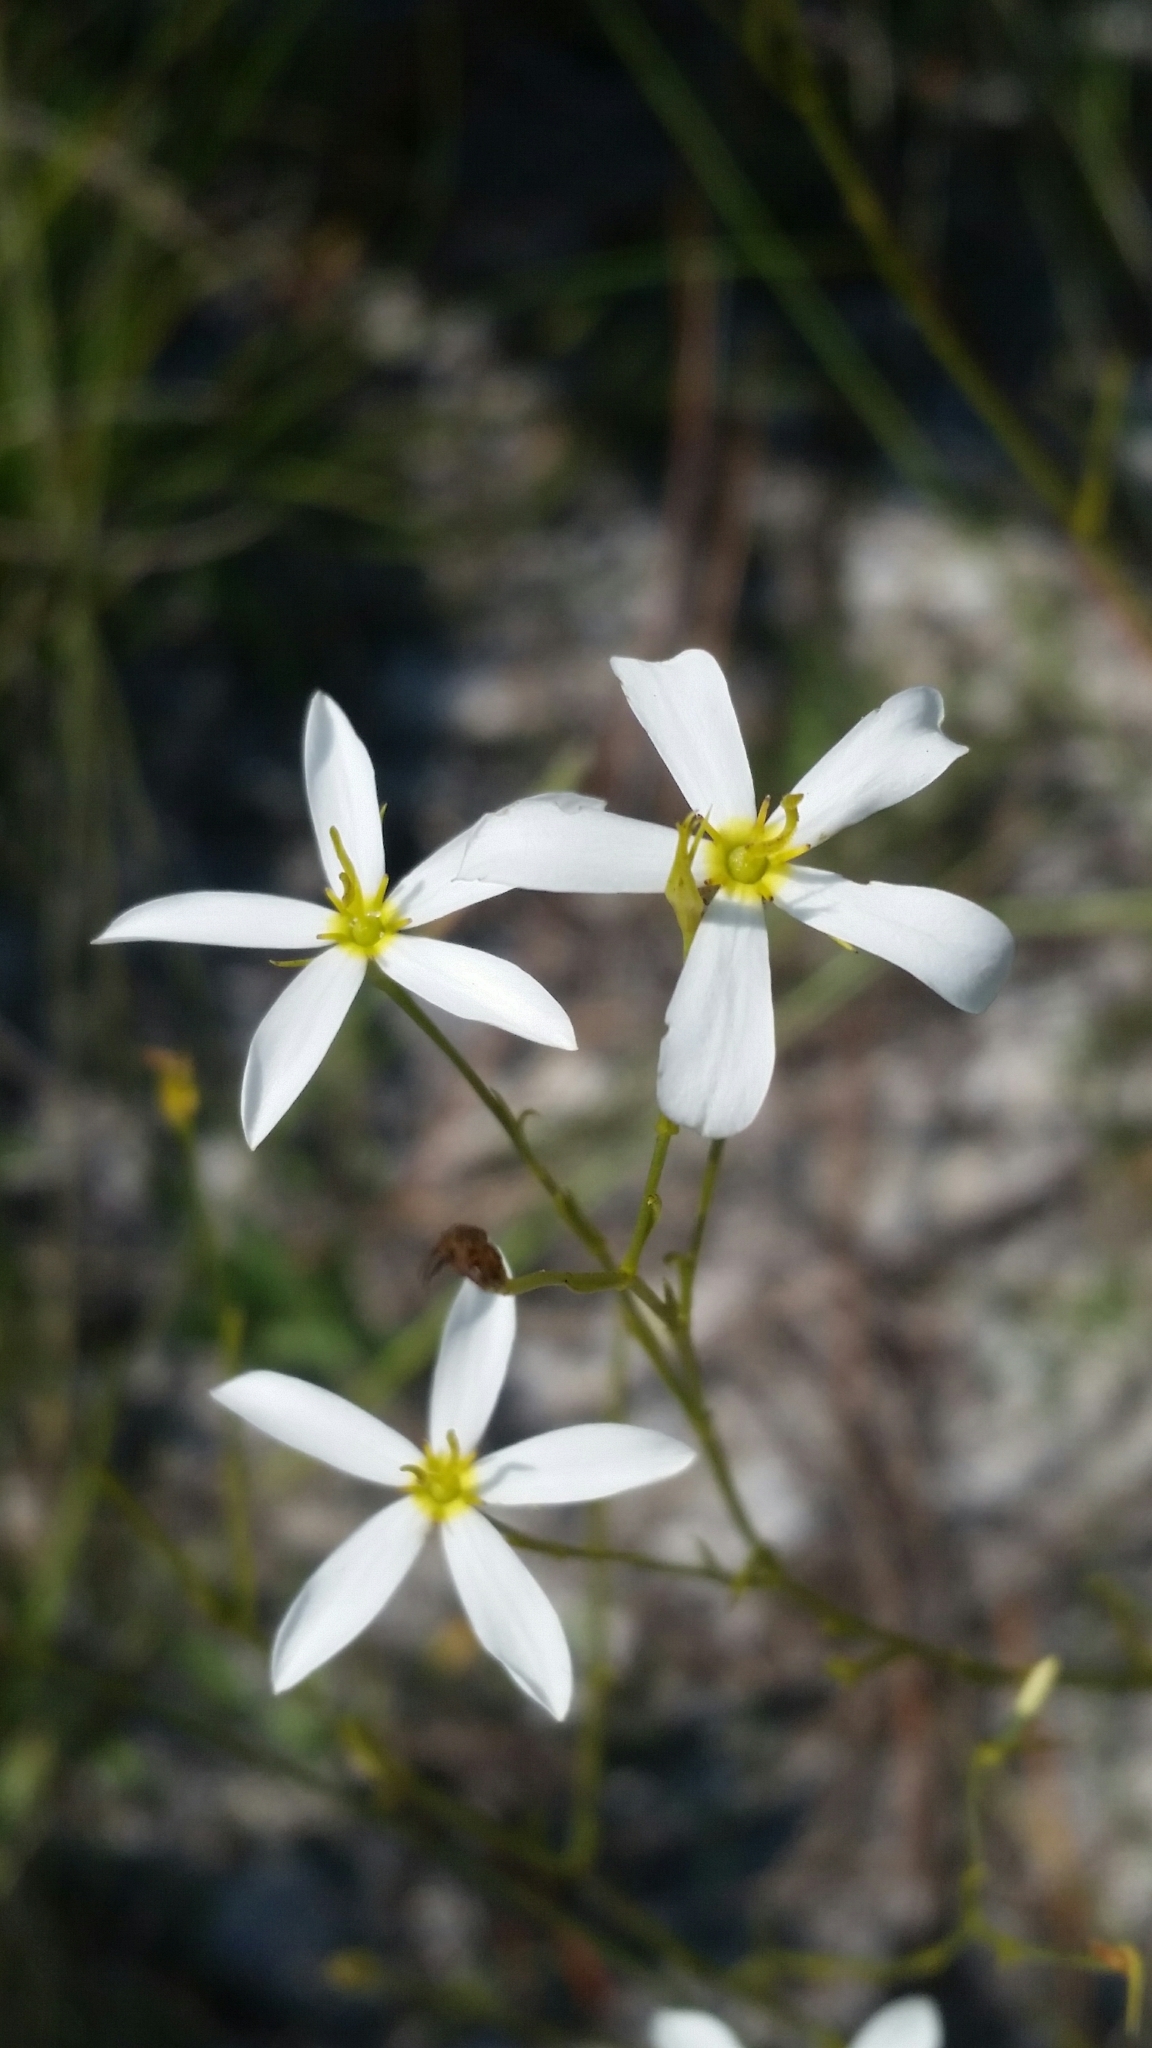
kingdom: Plantae
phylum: Tracheophyta
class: Magnoliopsida
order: Gentianales
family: Gentianaceae
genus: Sabatia
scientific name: Sabatia brevifolia
